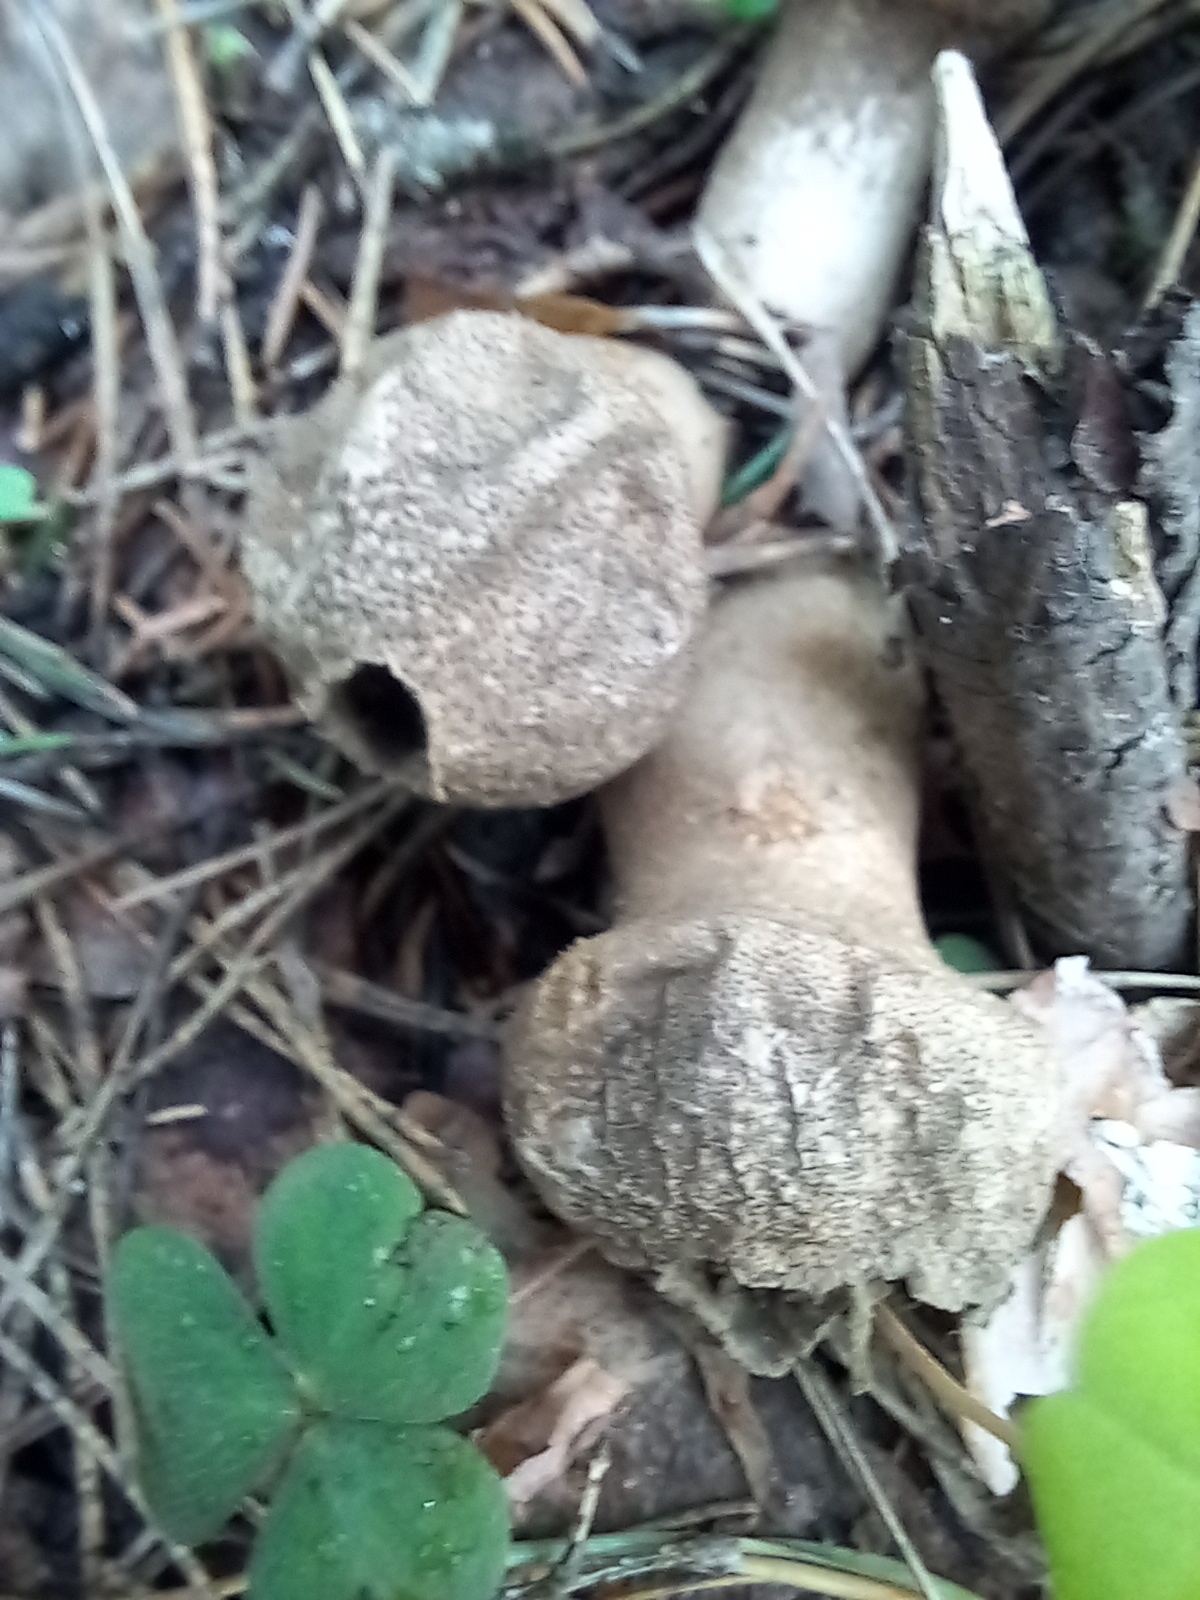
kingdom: Fungi
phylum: Basidiomycota
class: Agaricomycetes
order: Agaricales
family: Lycoperdaceae
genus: Lycoperdon
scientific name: Lycoperdon perlatum
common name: Common puffball
